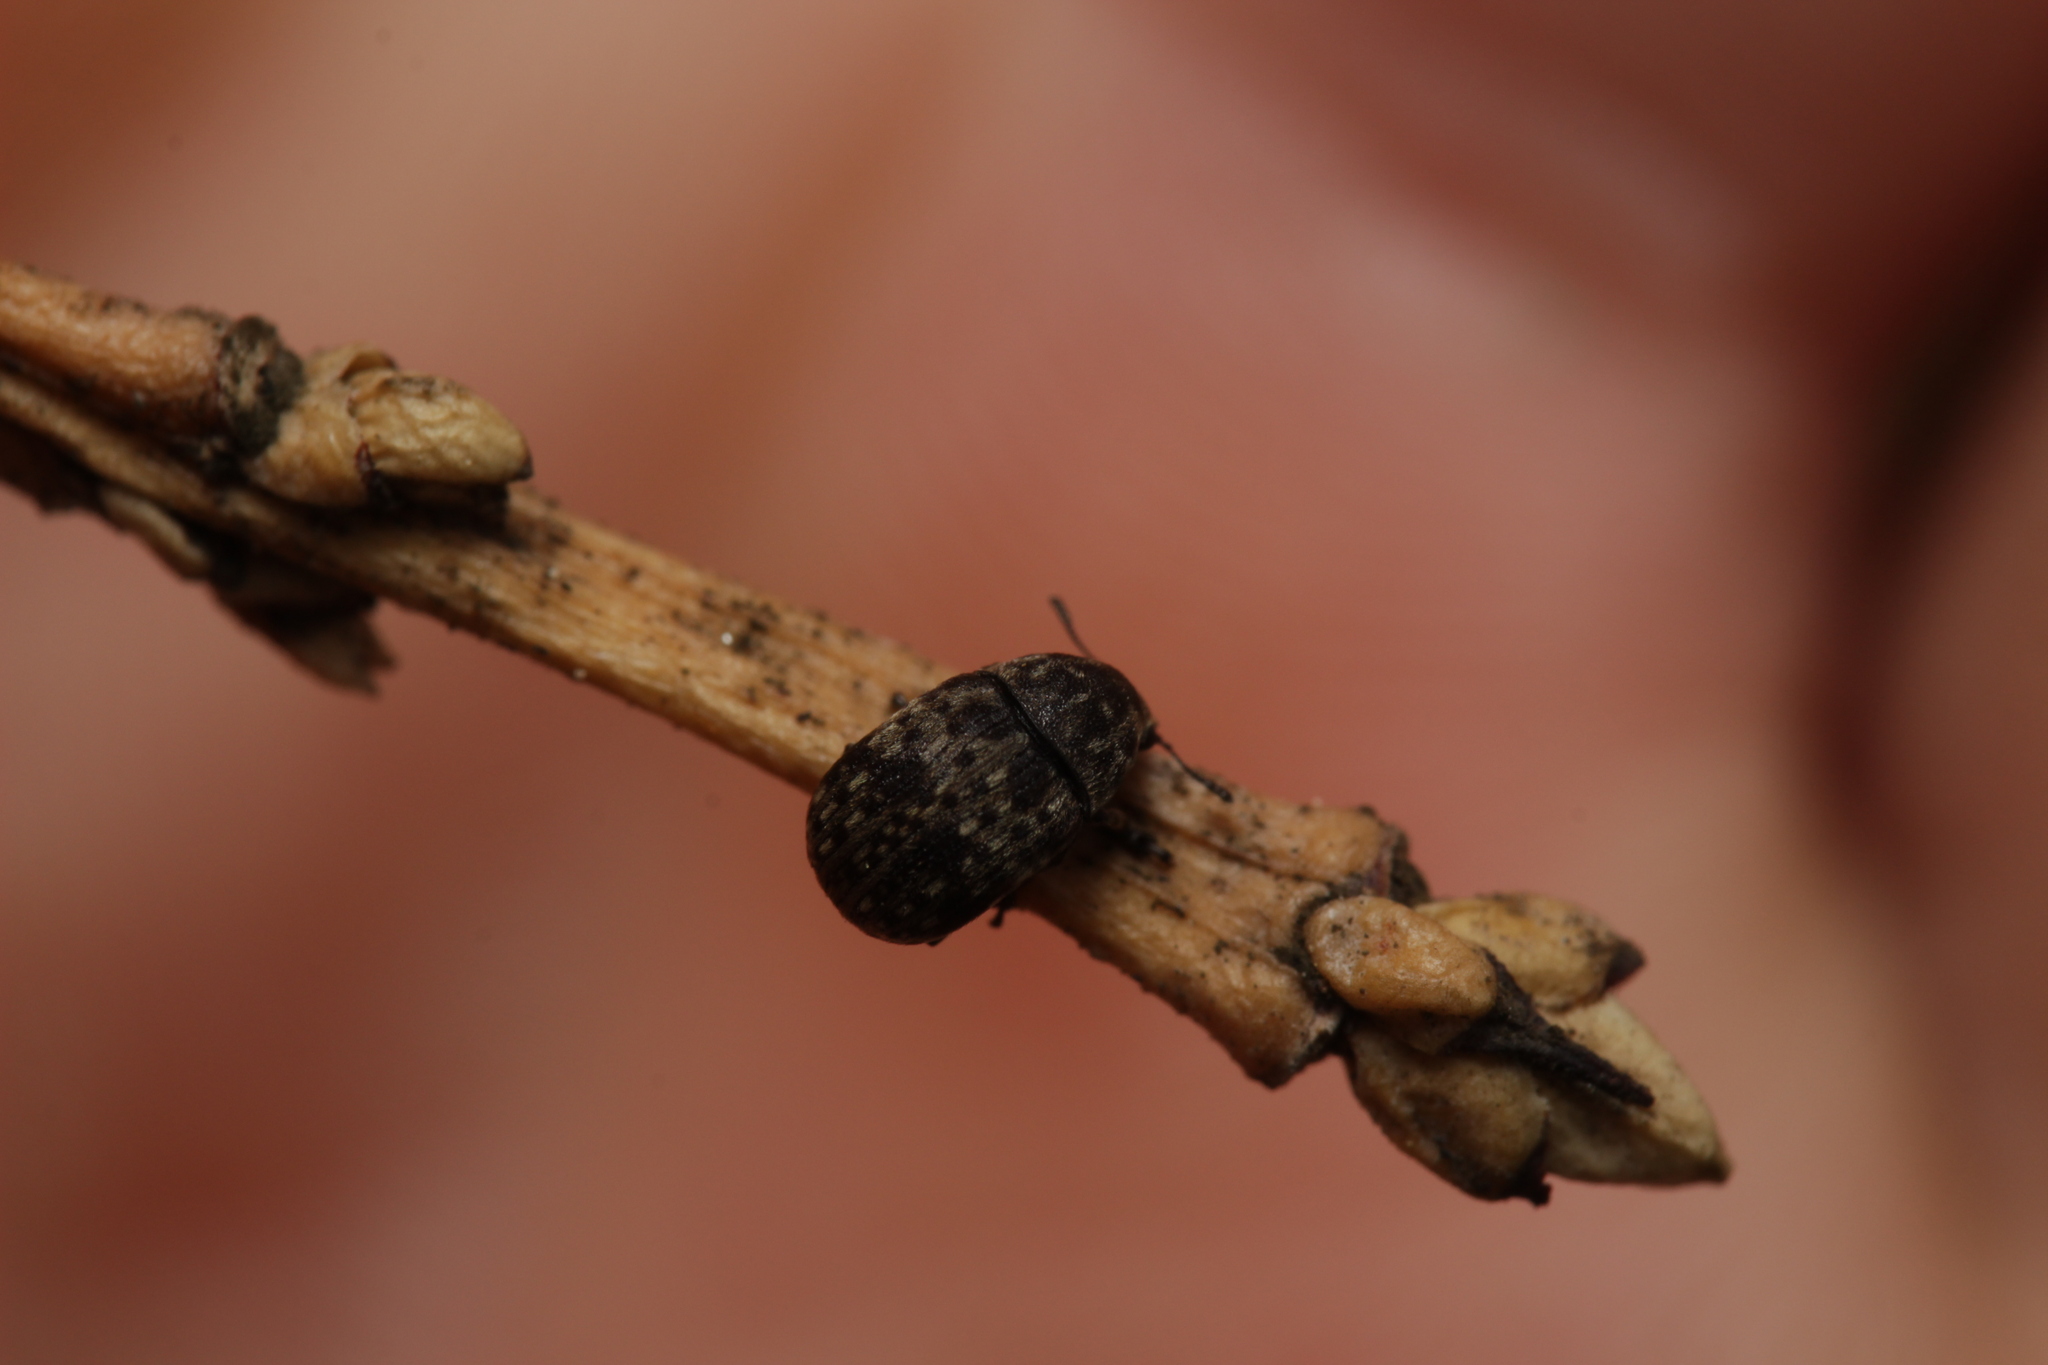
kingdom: Animalia
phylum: Arthropoda
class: Insecta
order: Coleoptera
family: Anthribidae
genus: Anthribus
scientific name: Anthribus nebulosus
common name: Fungus weevil
